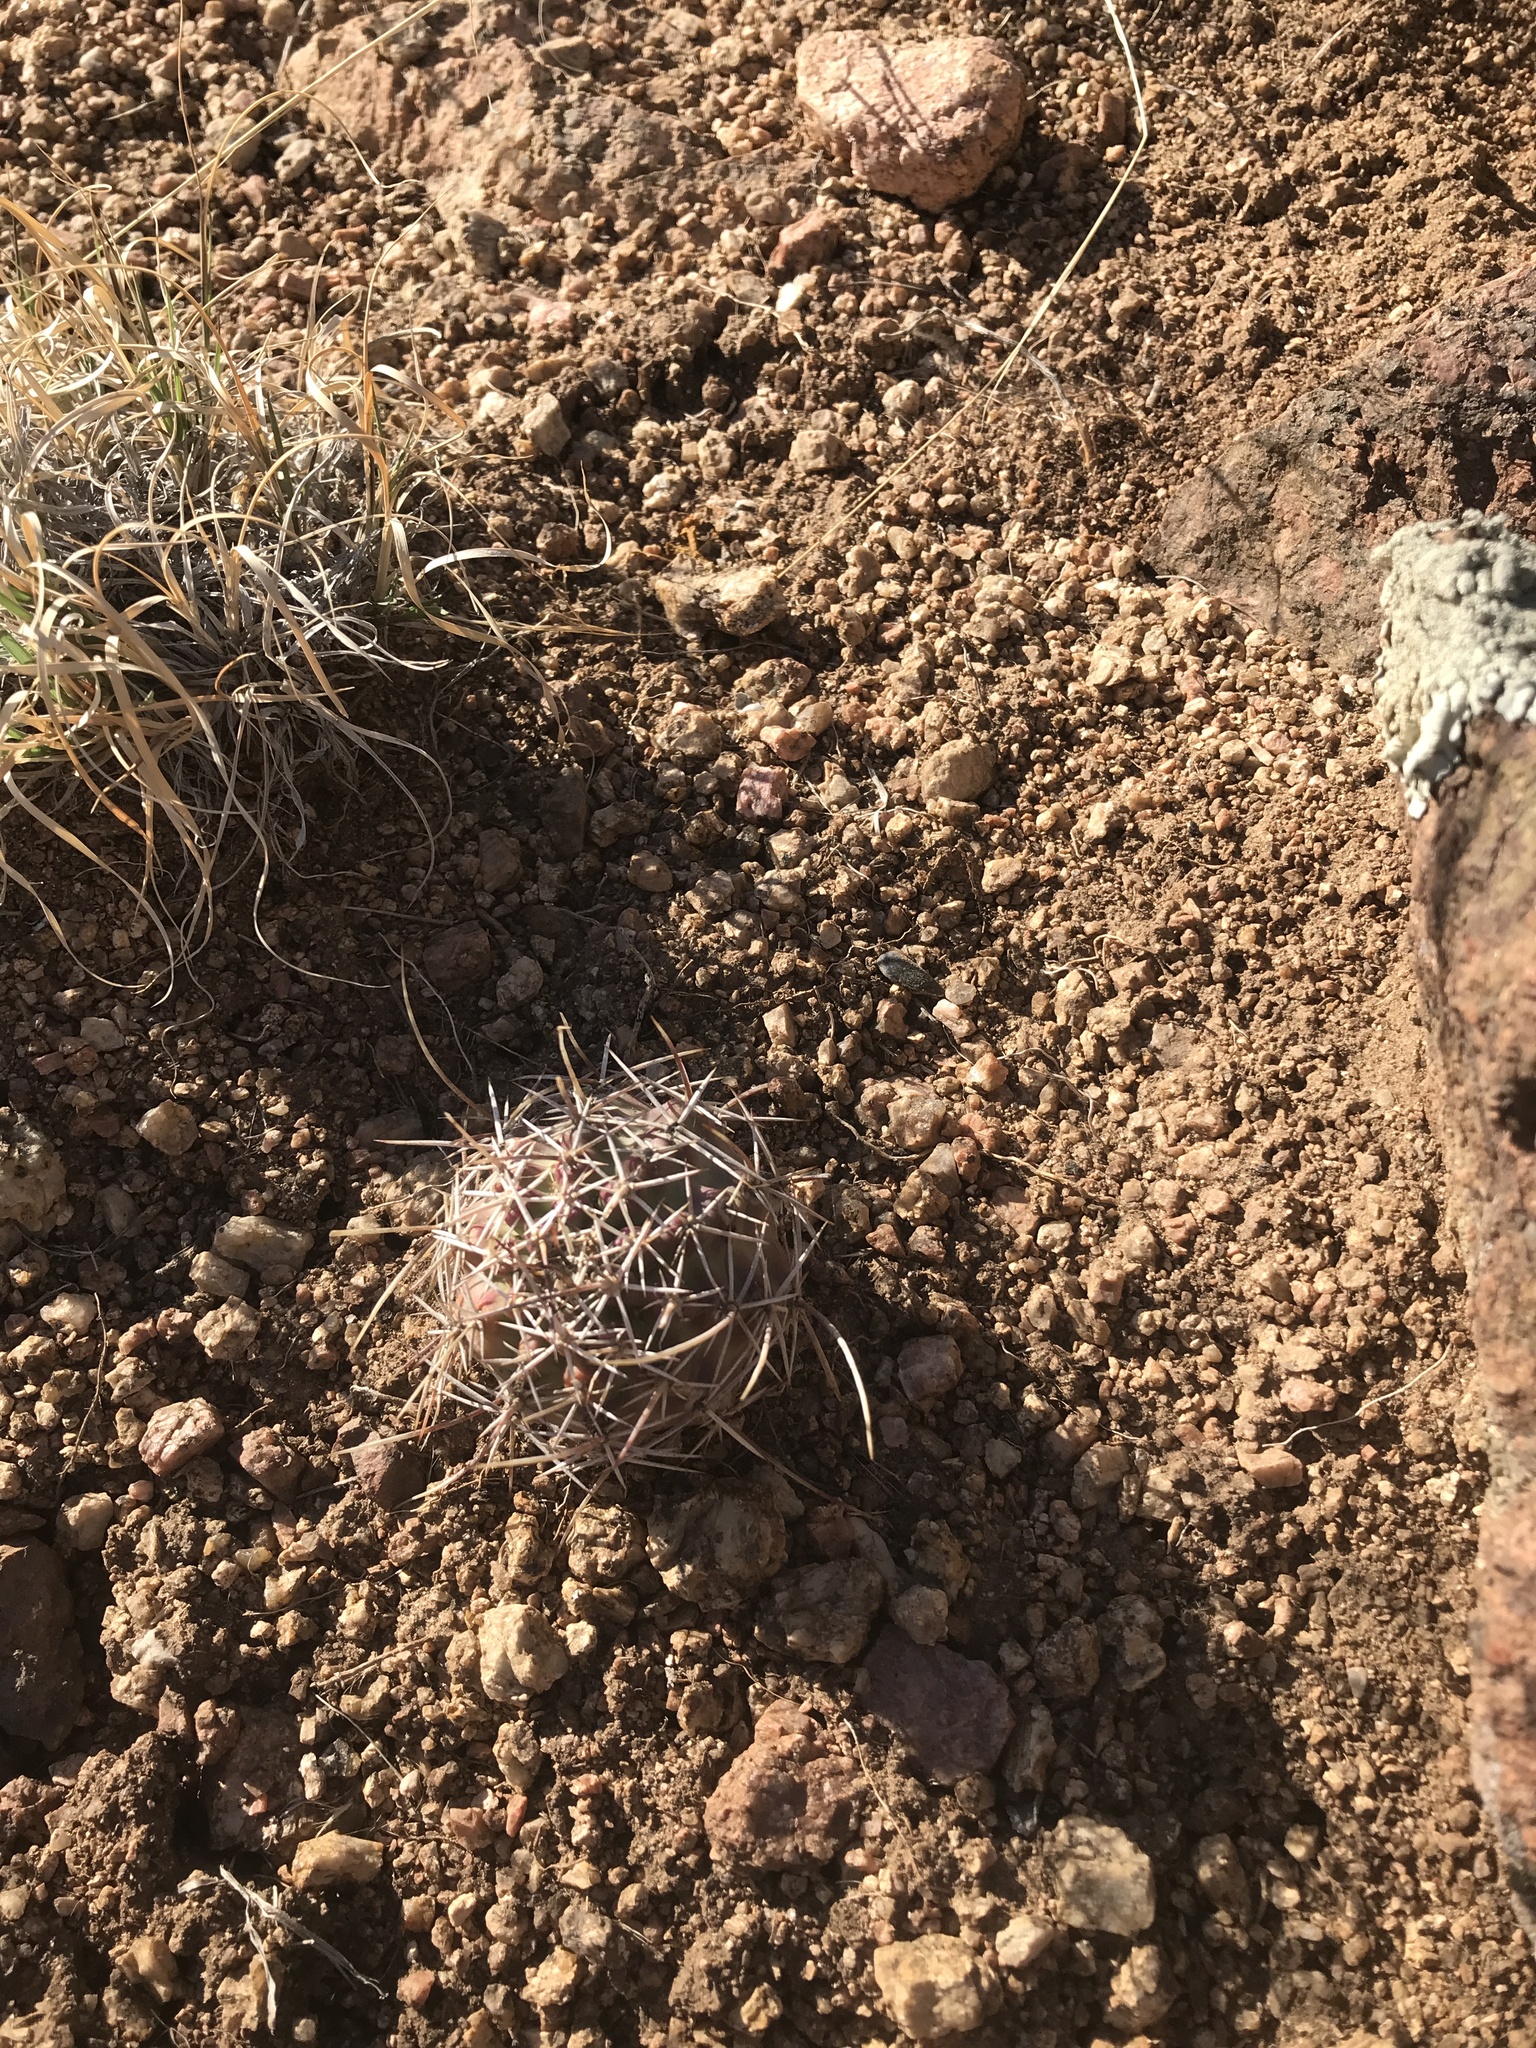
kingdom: Plantae
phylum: Tracheophyta
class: Magnoliopsida
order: Caryophyllales
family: Cactaceae
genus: Echinocereus
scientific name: Echinocereus fendleri
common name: Fendler's hedgehog cactus
